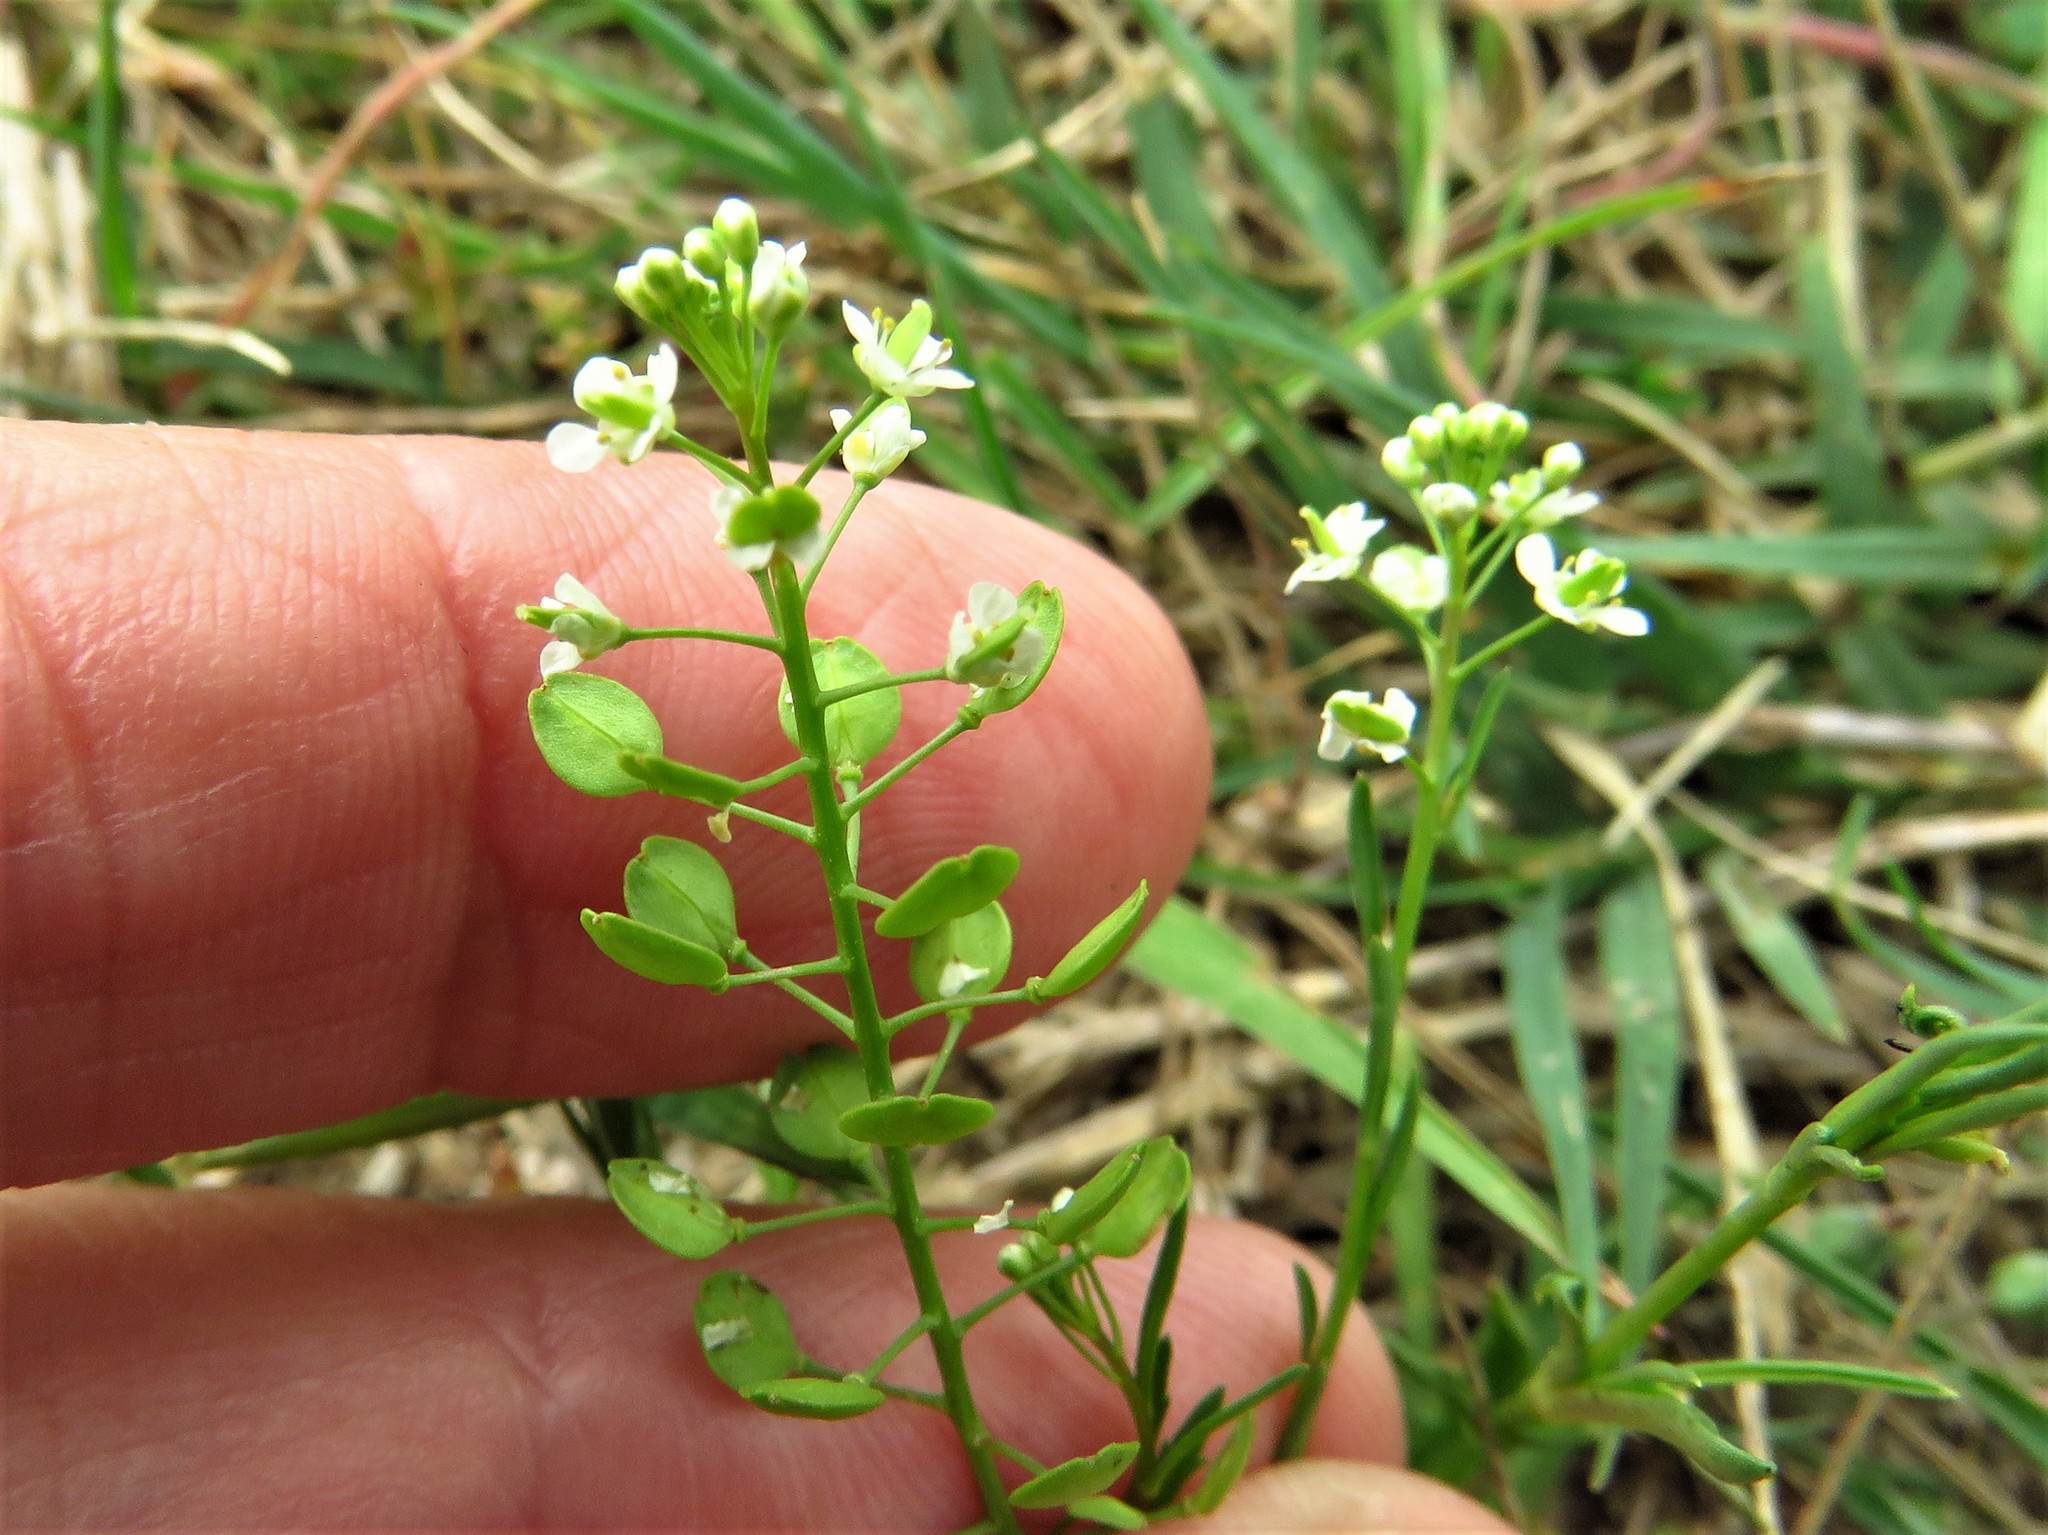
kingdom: Plantae
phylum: Tracheophyta
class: Magnoliopsida
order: Brassicales
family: Brassicaceae
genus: Lepidium
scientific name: Lepidium virginicum
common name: Least pepperwort
